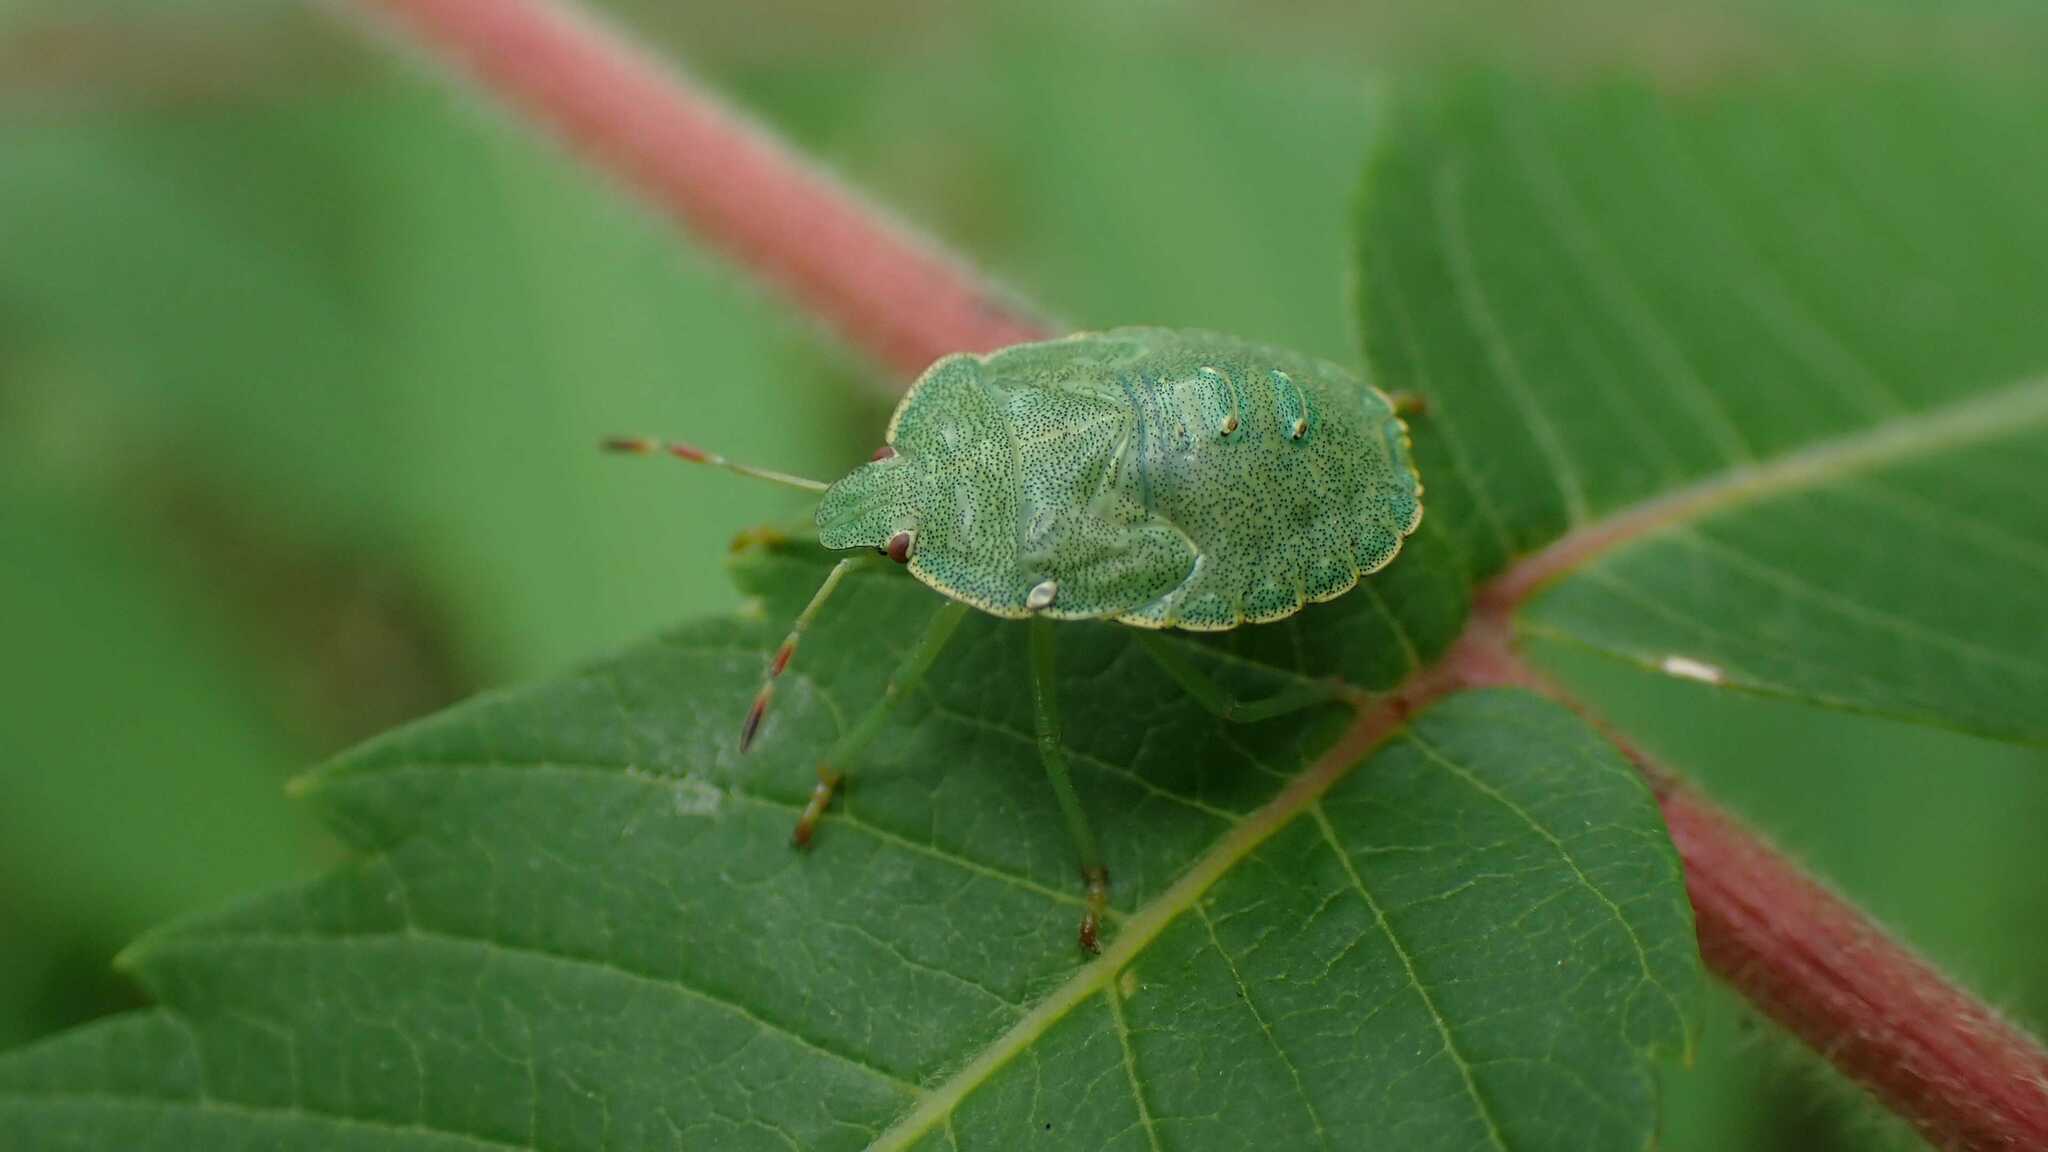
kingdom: Animalia
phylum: Arthropoda
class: Insecta
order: Hemiptera
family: Pentatomidae
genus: Palomena
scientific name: Palomena prasina
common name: Green shieldbug
